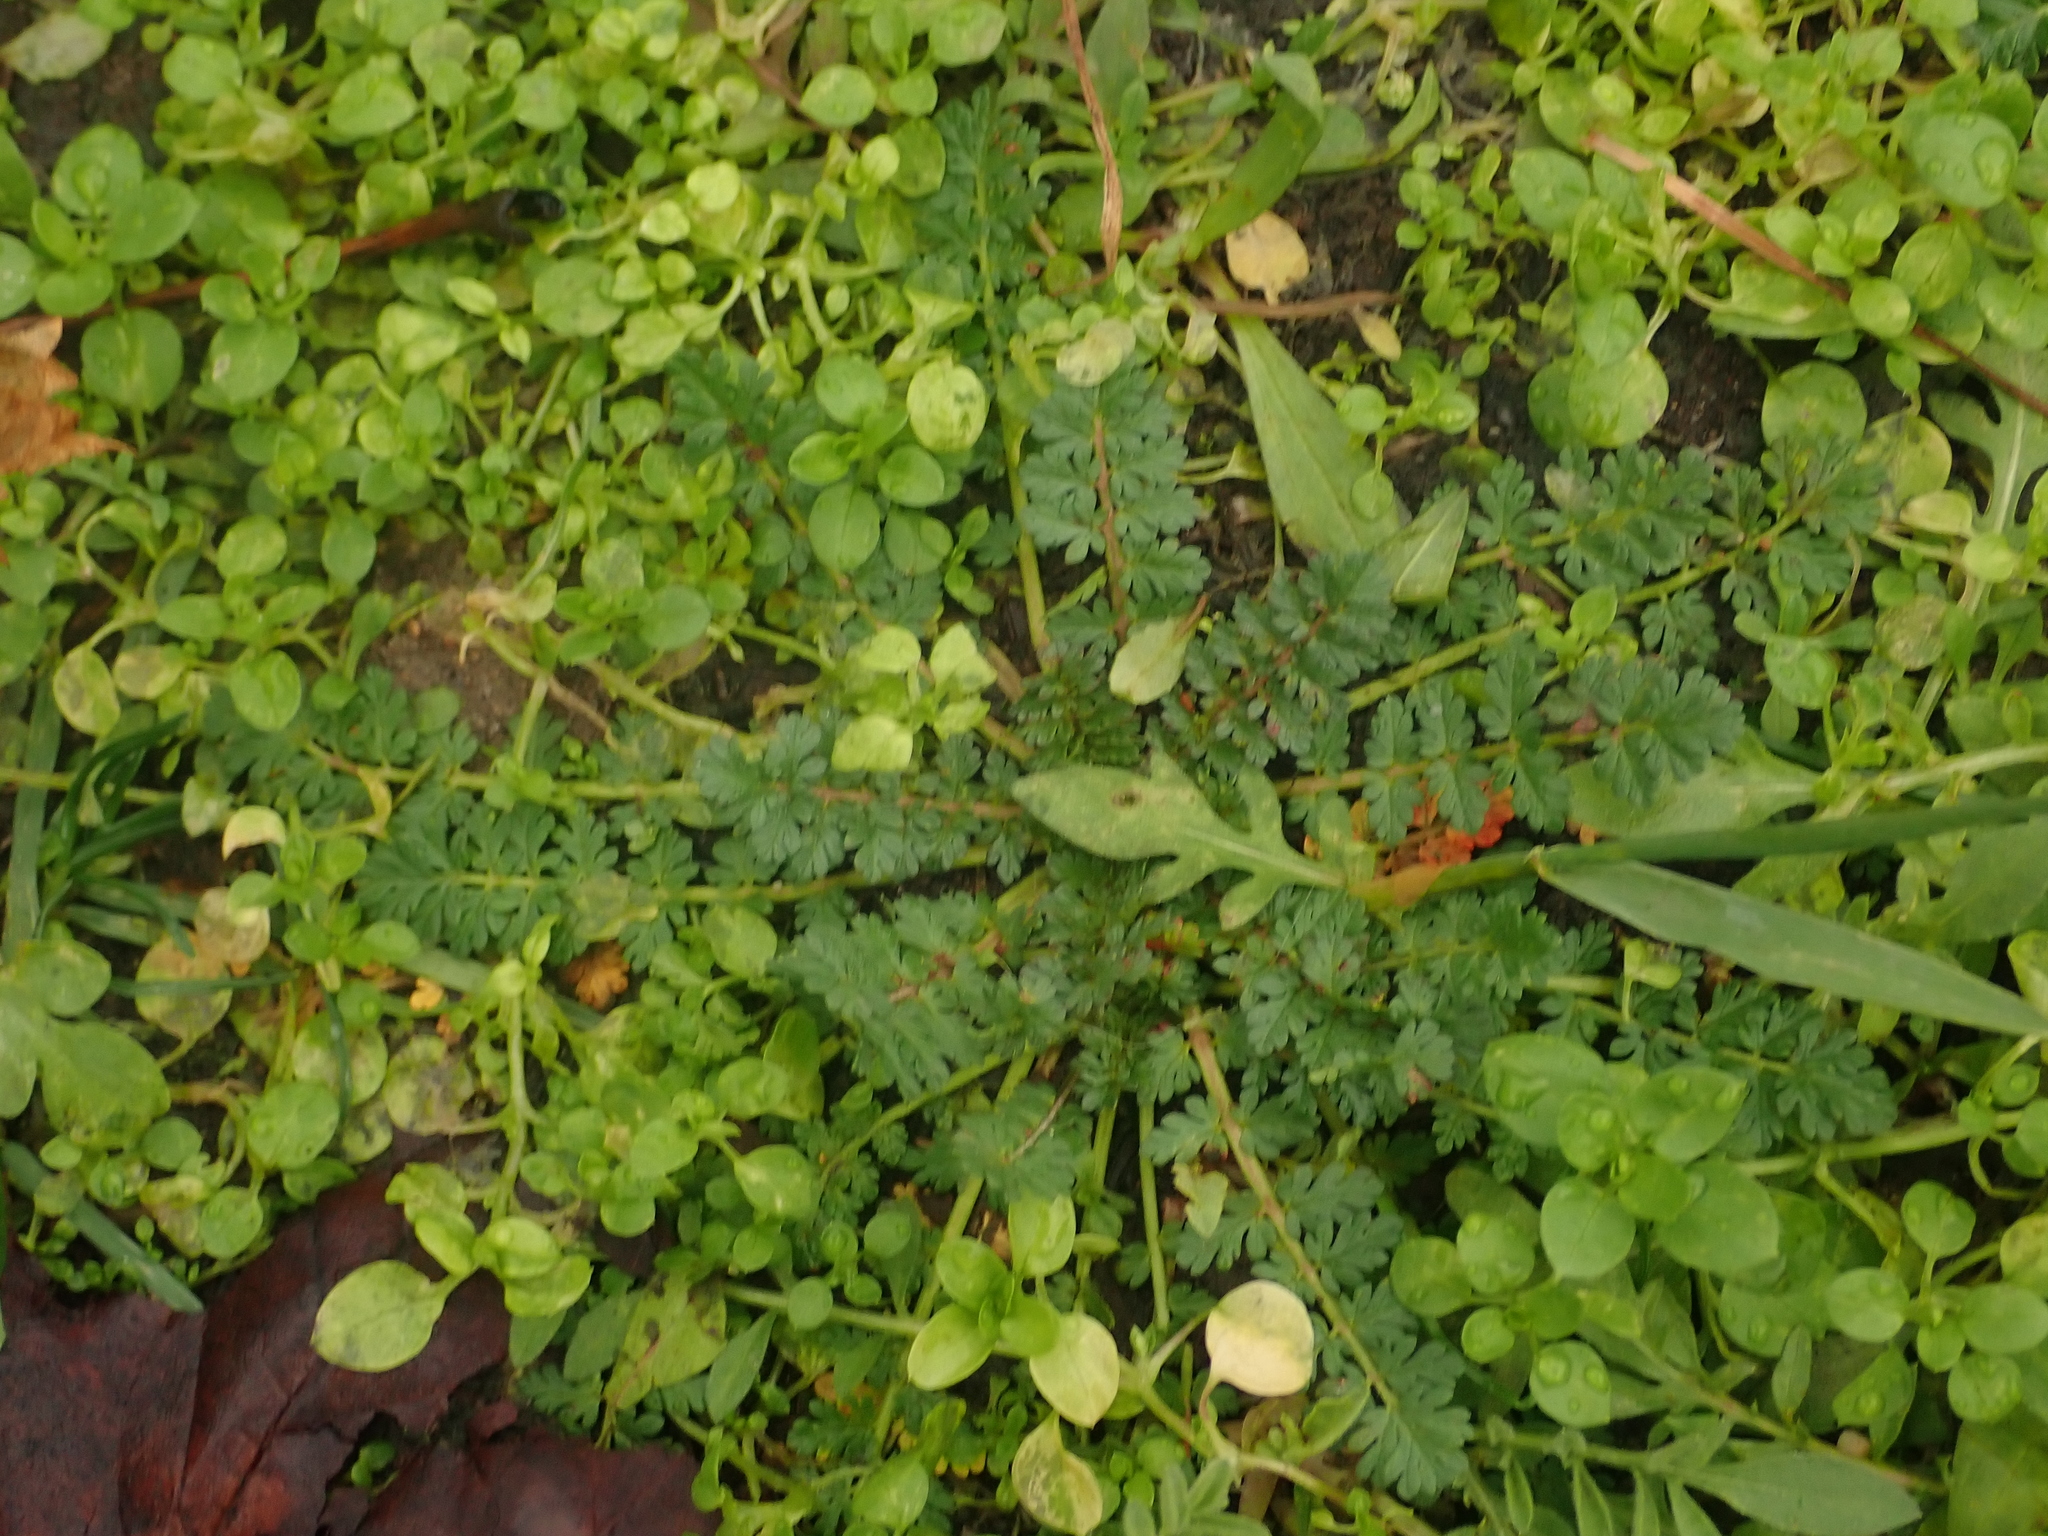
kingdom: Plantae
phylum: Tracheophyta
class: Magnoliopsida
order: Geraniales
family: Geraniaceae
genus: Erodium
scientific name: Erodium cicutarium
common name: Common stork's-bill
